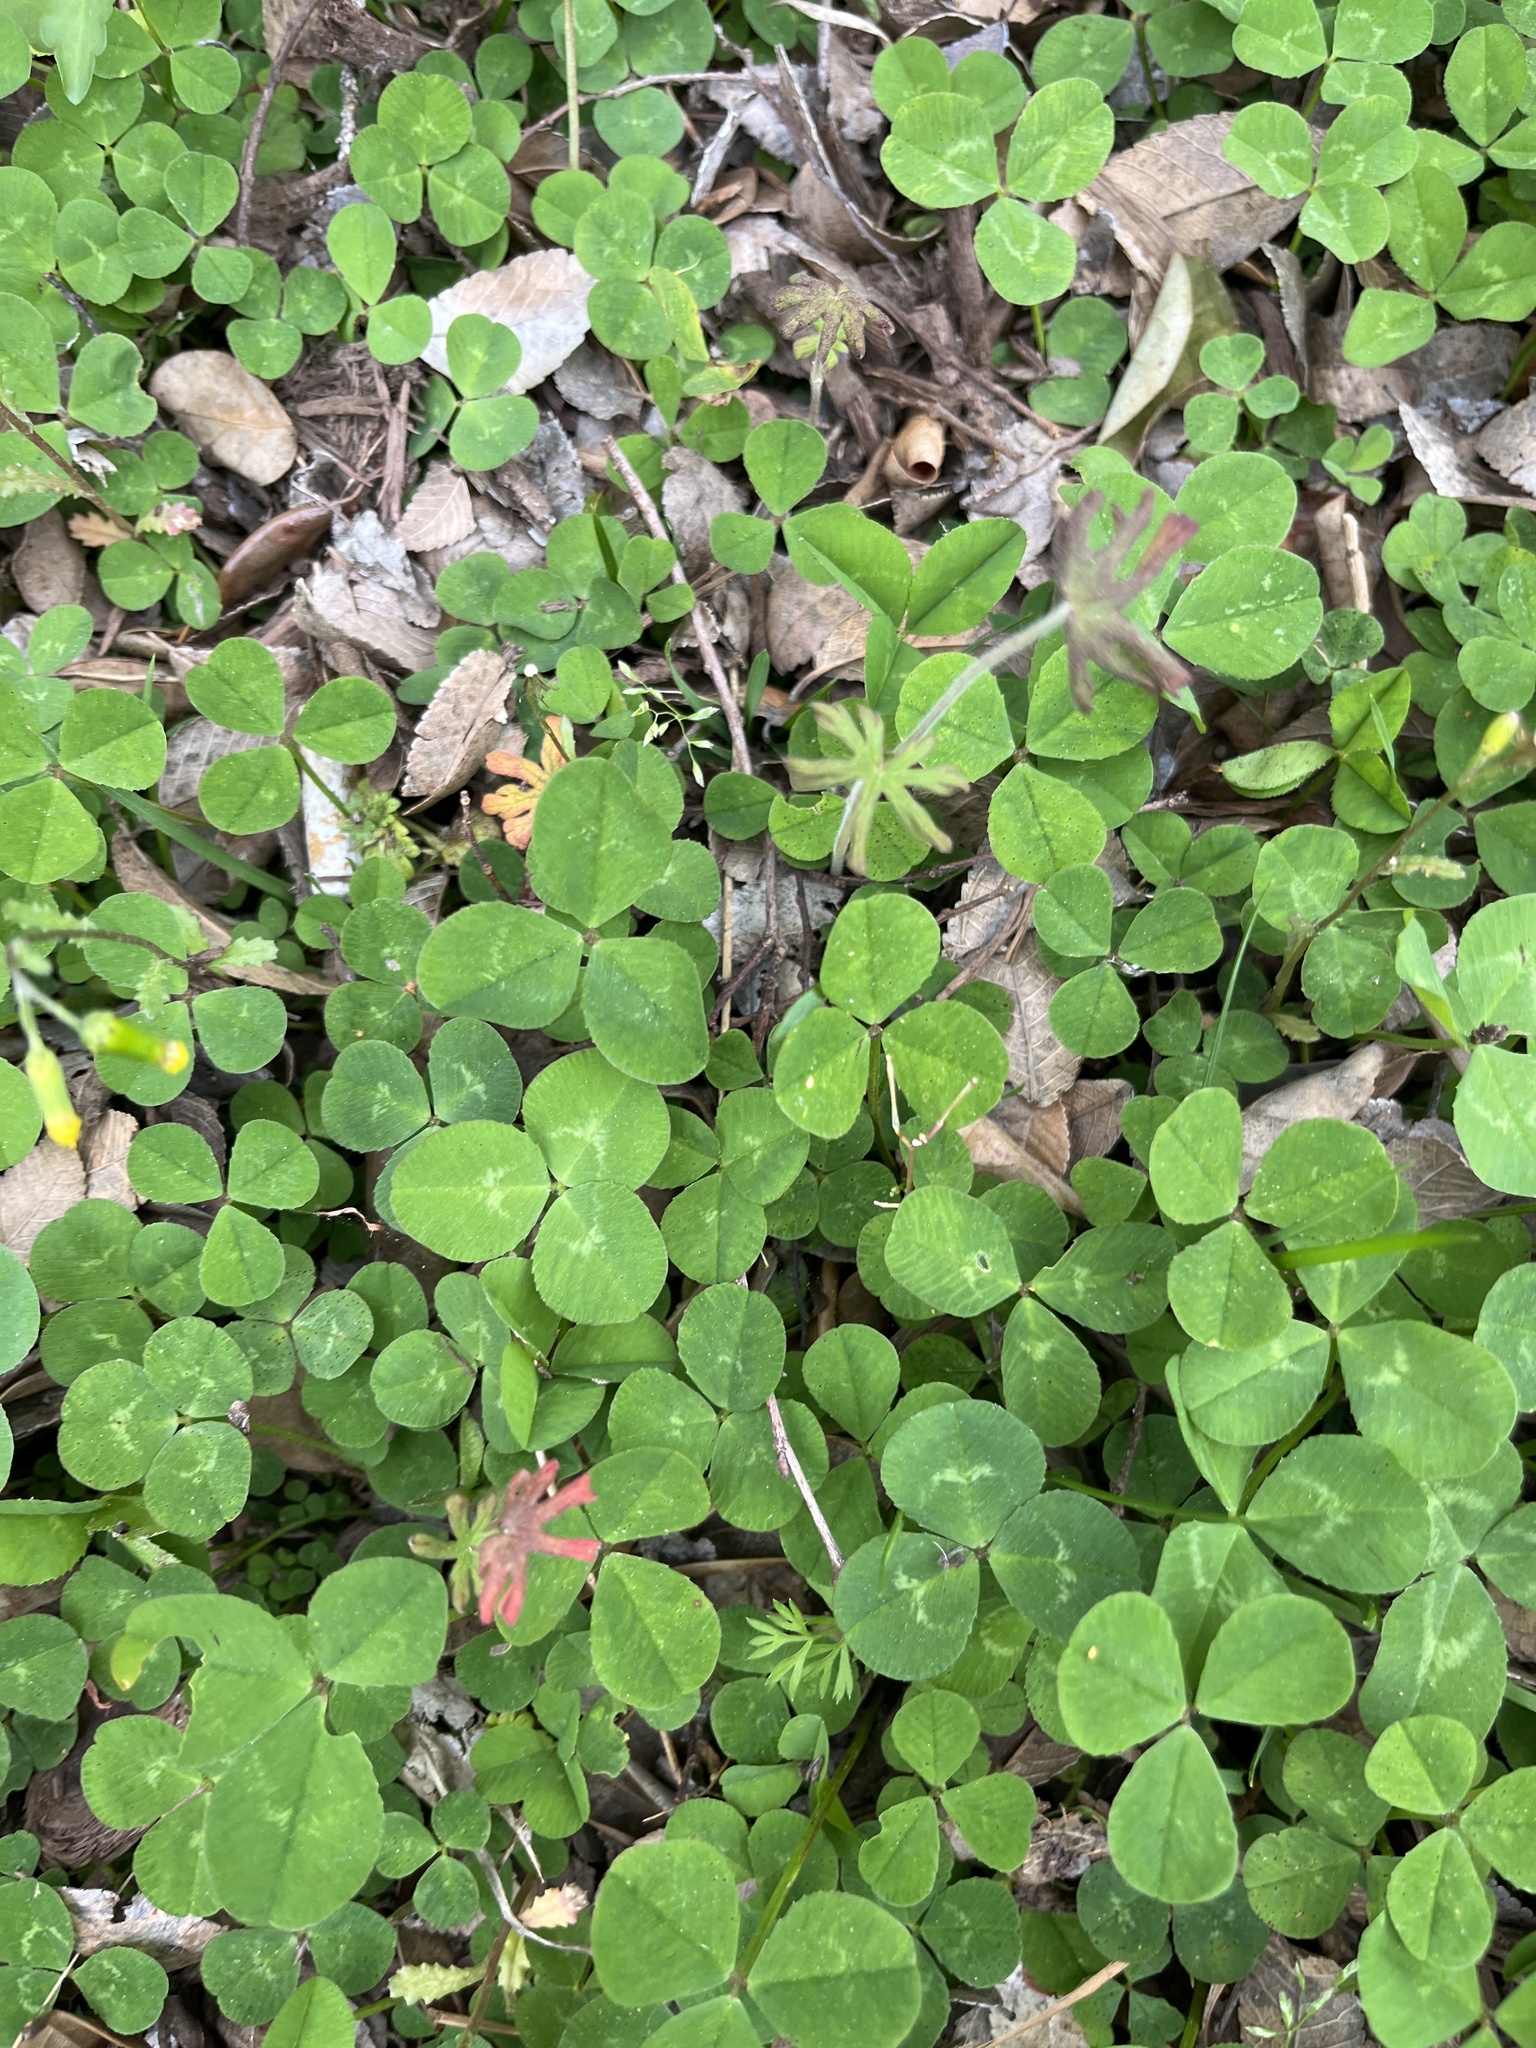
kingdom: Plantae
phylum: Tracheophyta
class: Magnoliopsida
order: Fabales
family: Fabaceae
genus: Trifolium
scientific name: Trifolium repens
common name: White clover
